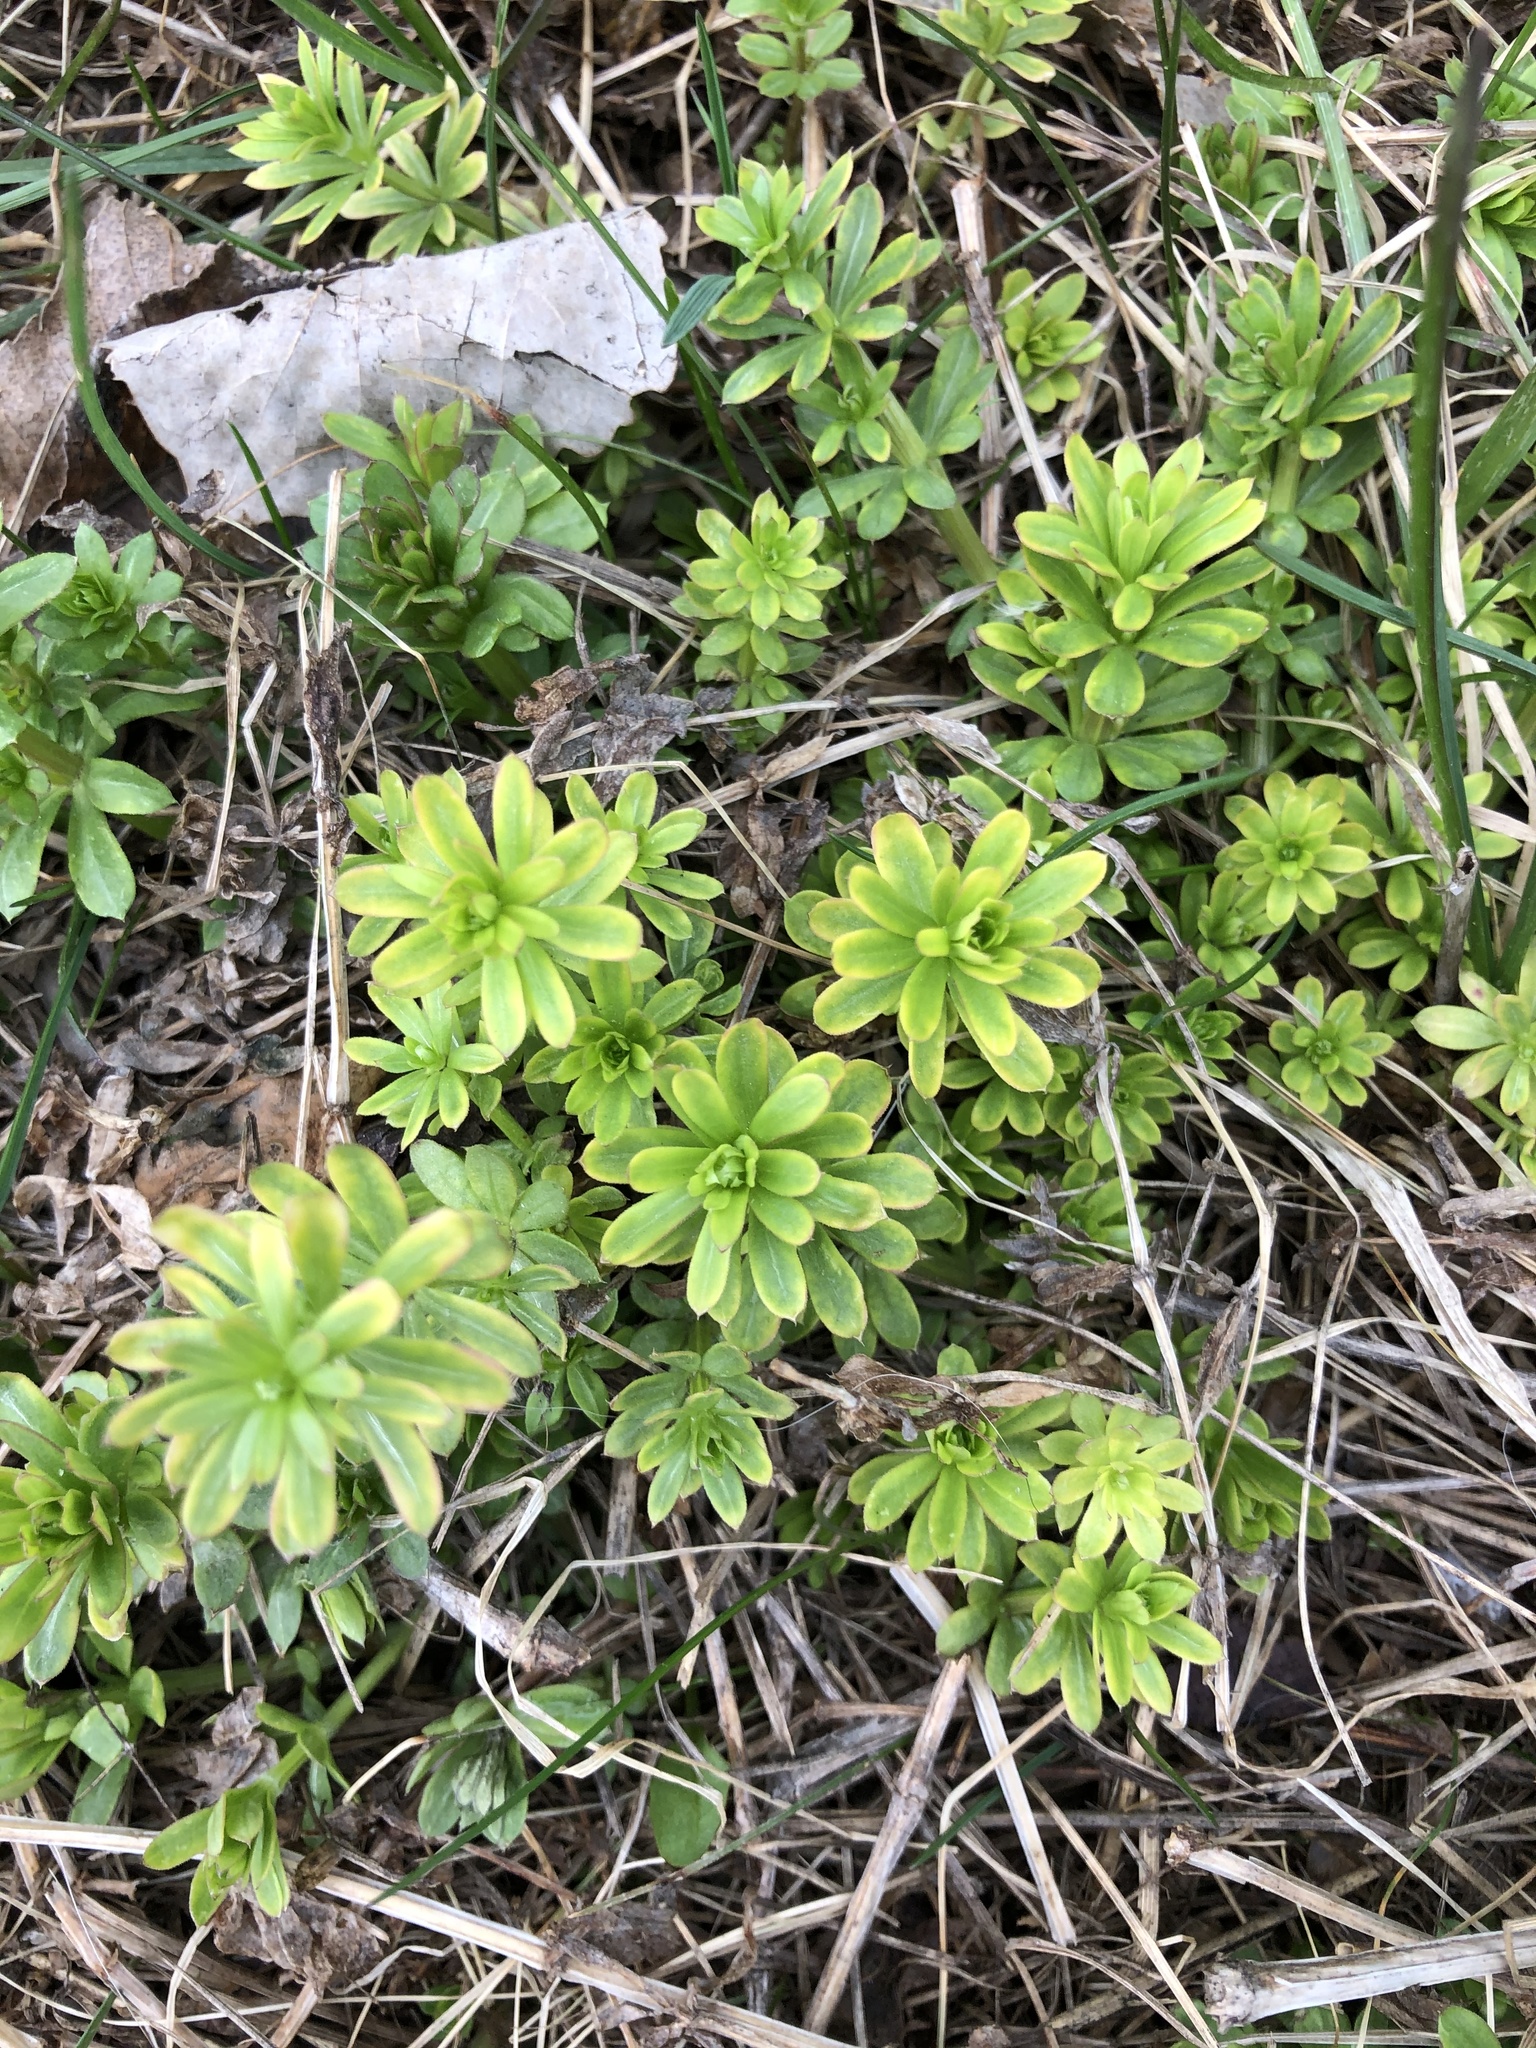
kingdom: Plantae
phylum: Tracheophyta
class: Magnoliopsida
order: Gentianales
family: Rubiaceae
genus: Galium
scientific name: Galium mollugo
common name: Hedge bedstraw
